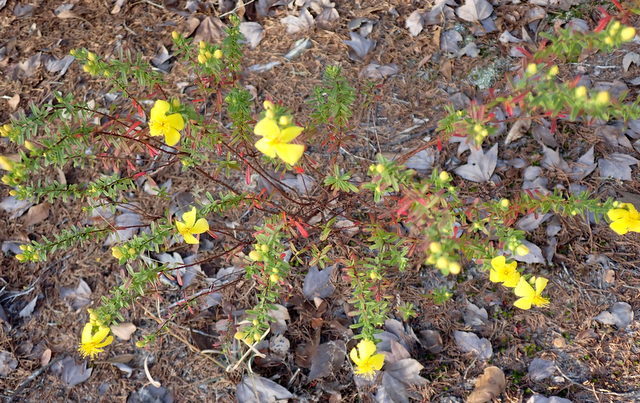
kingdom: Plantae
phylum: Tracheophyta
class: Magnoliopsida
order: Malpighiales
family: Hypericaceae
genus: Hypericum
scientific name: Hypericum microsepalum
